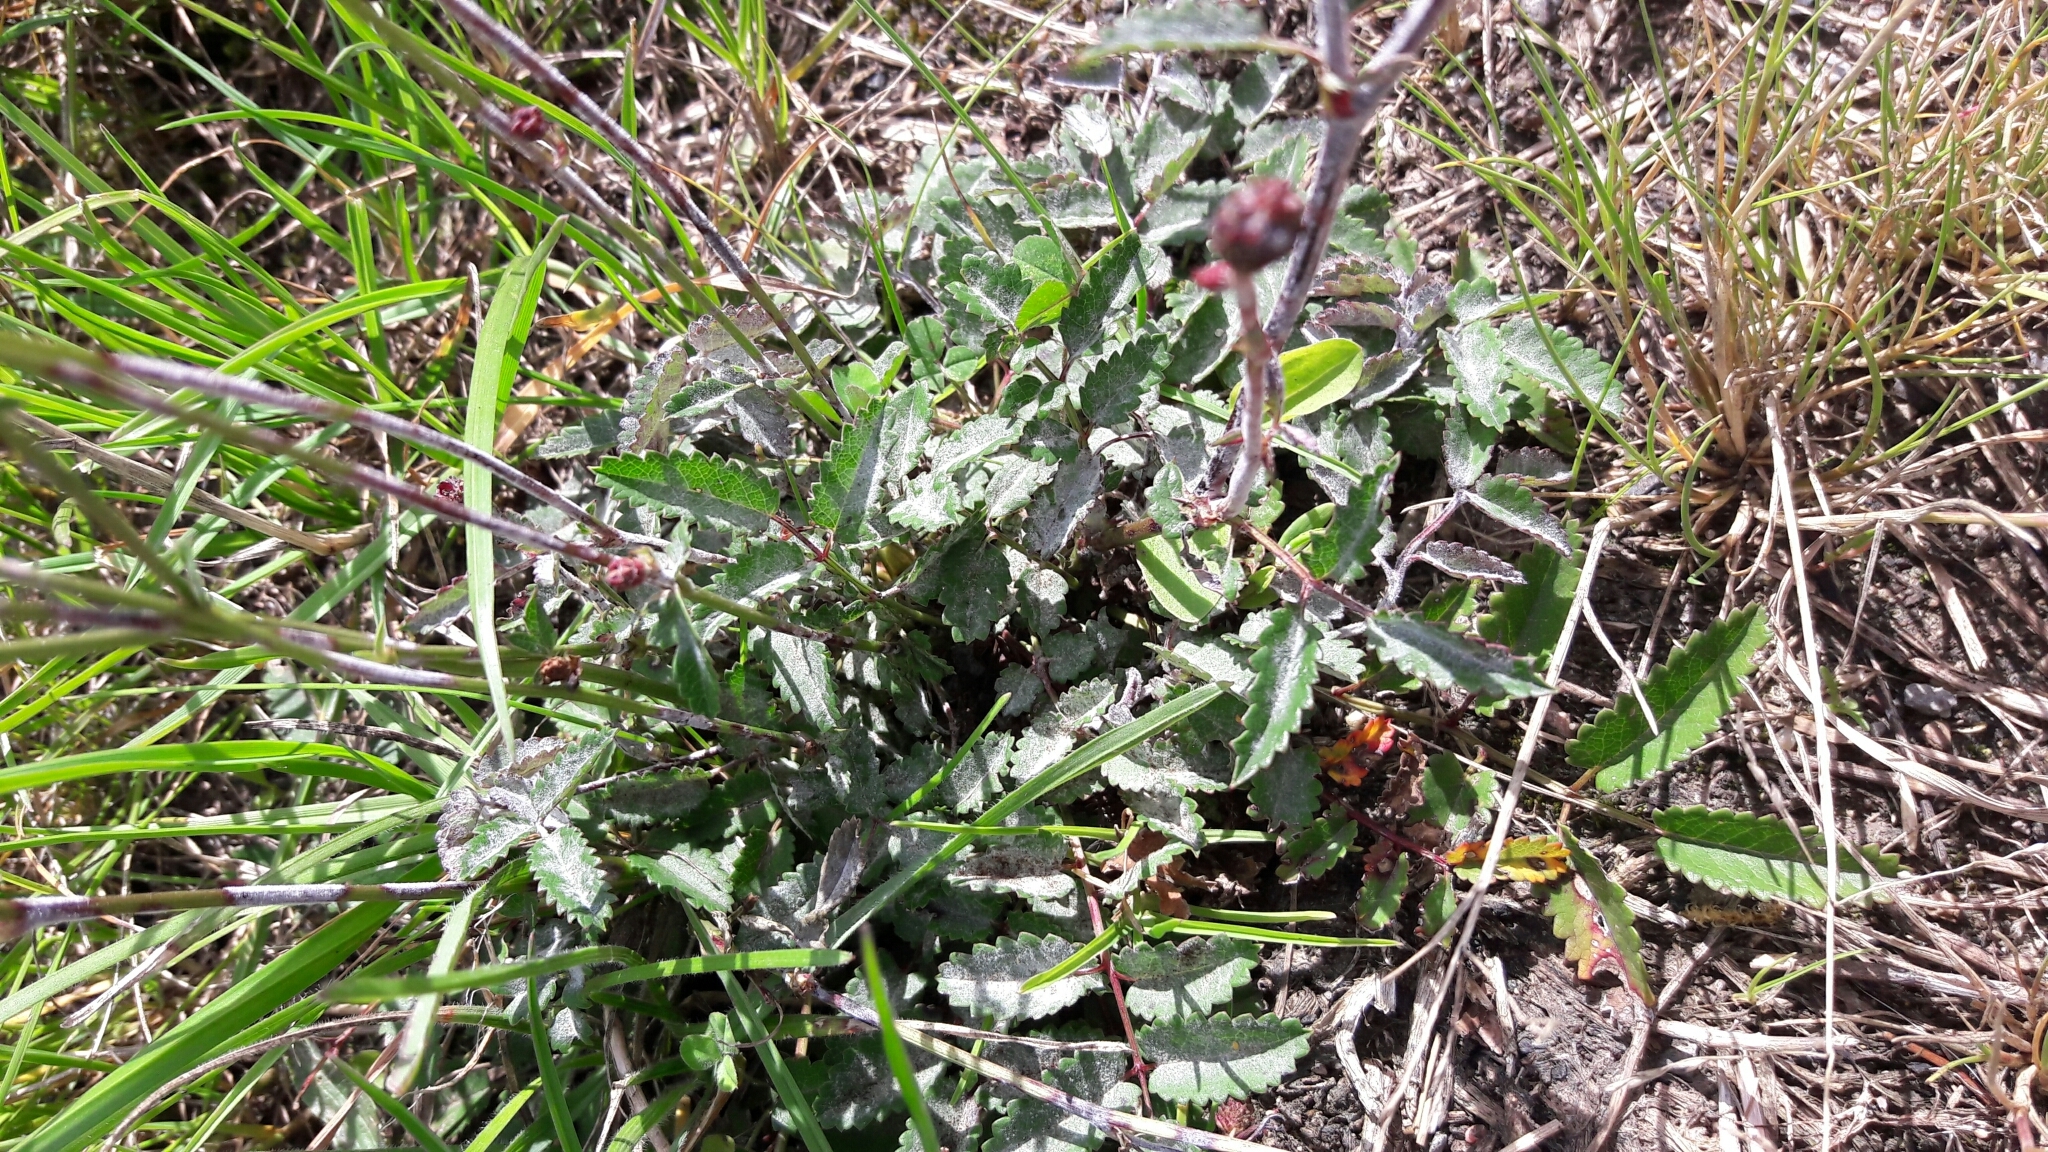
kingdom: Plantae
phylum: Tracheophyta
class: Magnoliopsida
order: Rosales
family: Rosaceae
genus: Sanguisorba
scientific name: Sanguisorba officinalis
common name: Great burnet
